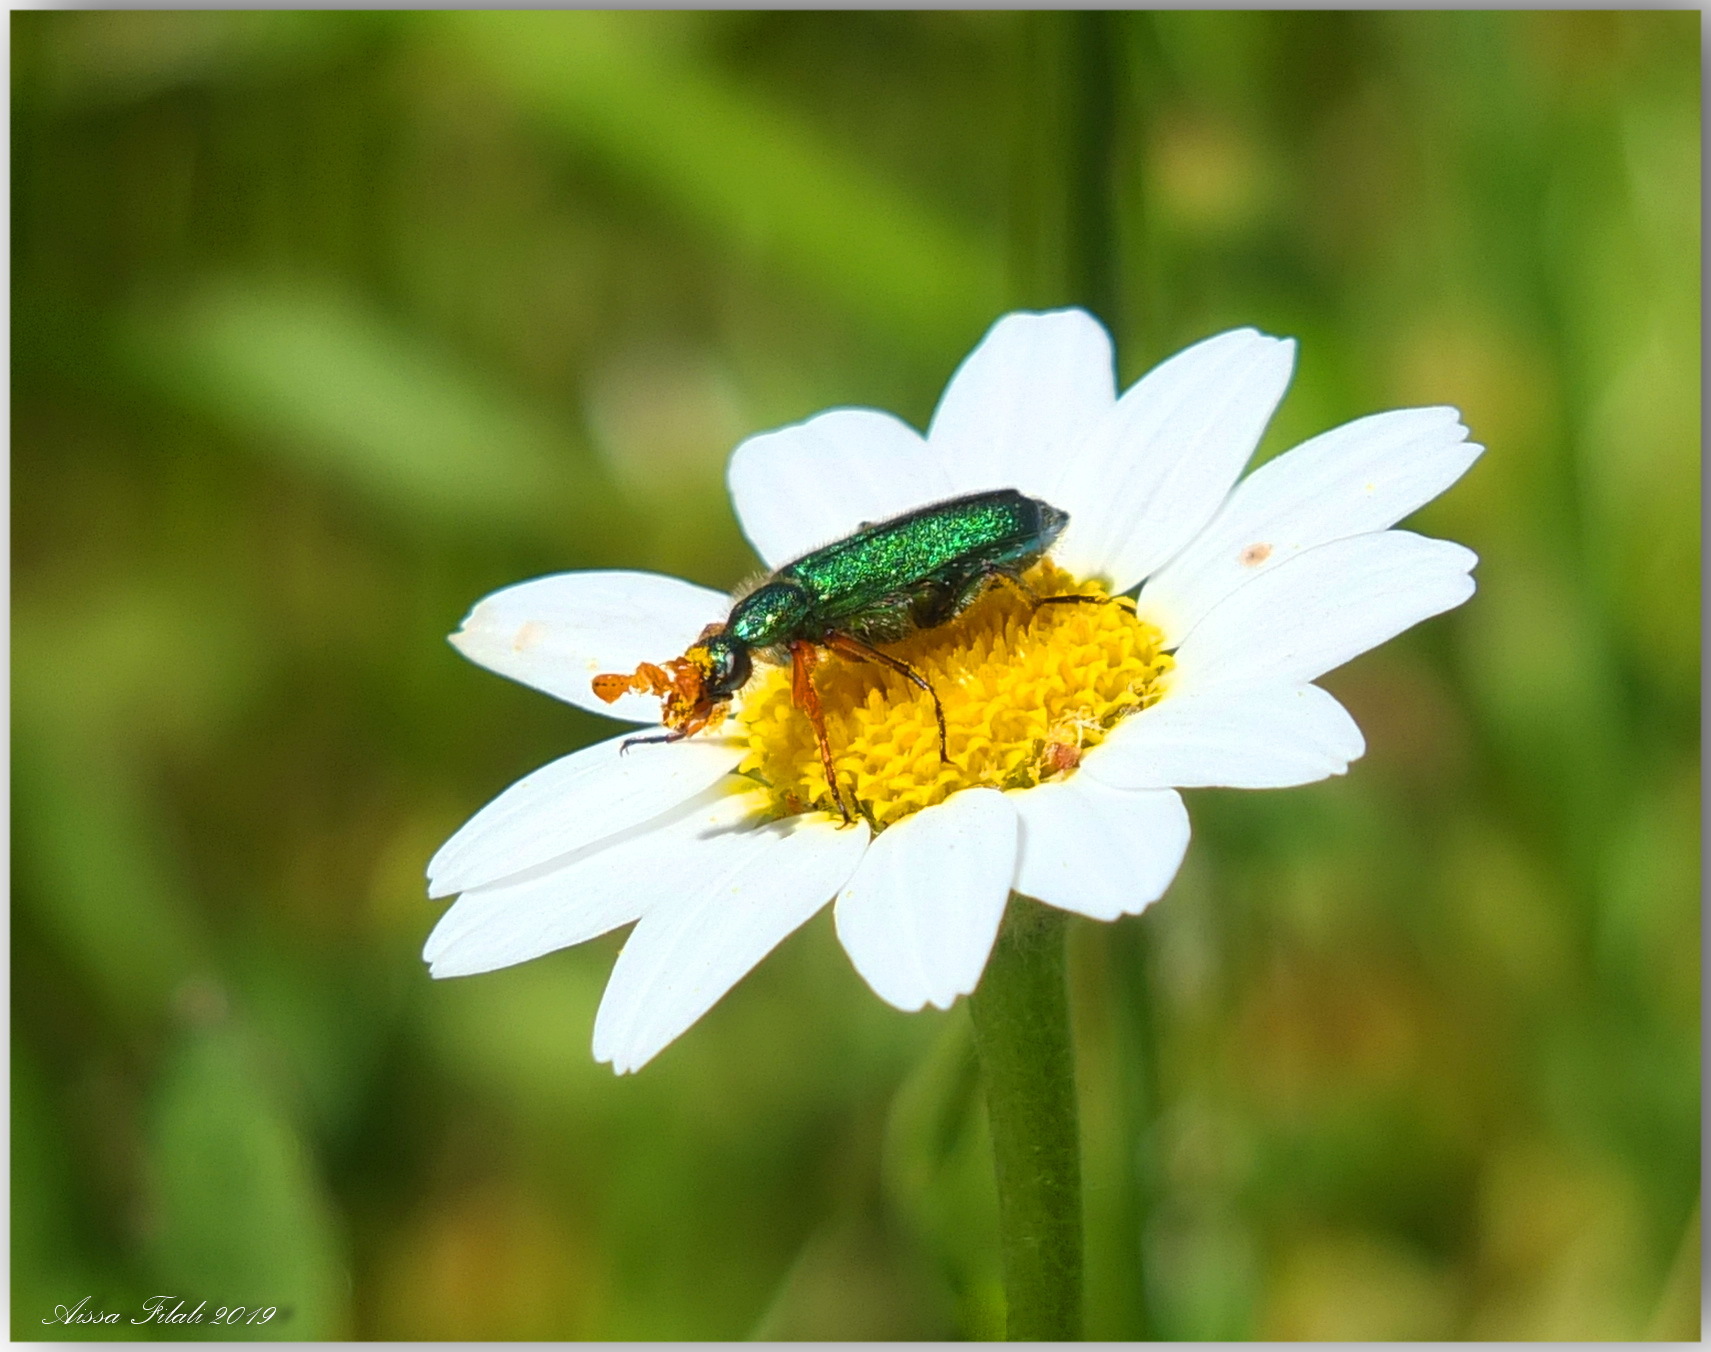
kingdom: Animalia
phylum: Arthropoda
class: Insecta
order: Coleoptera
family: Meloidae
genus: Cerocoma
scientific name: Cerocoma
